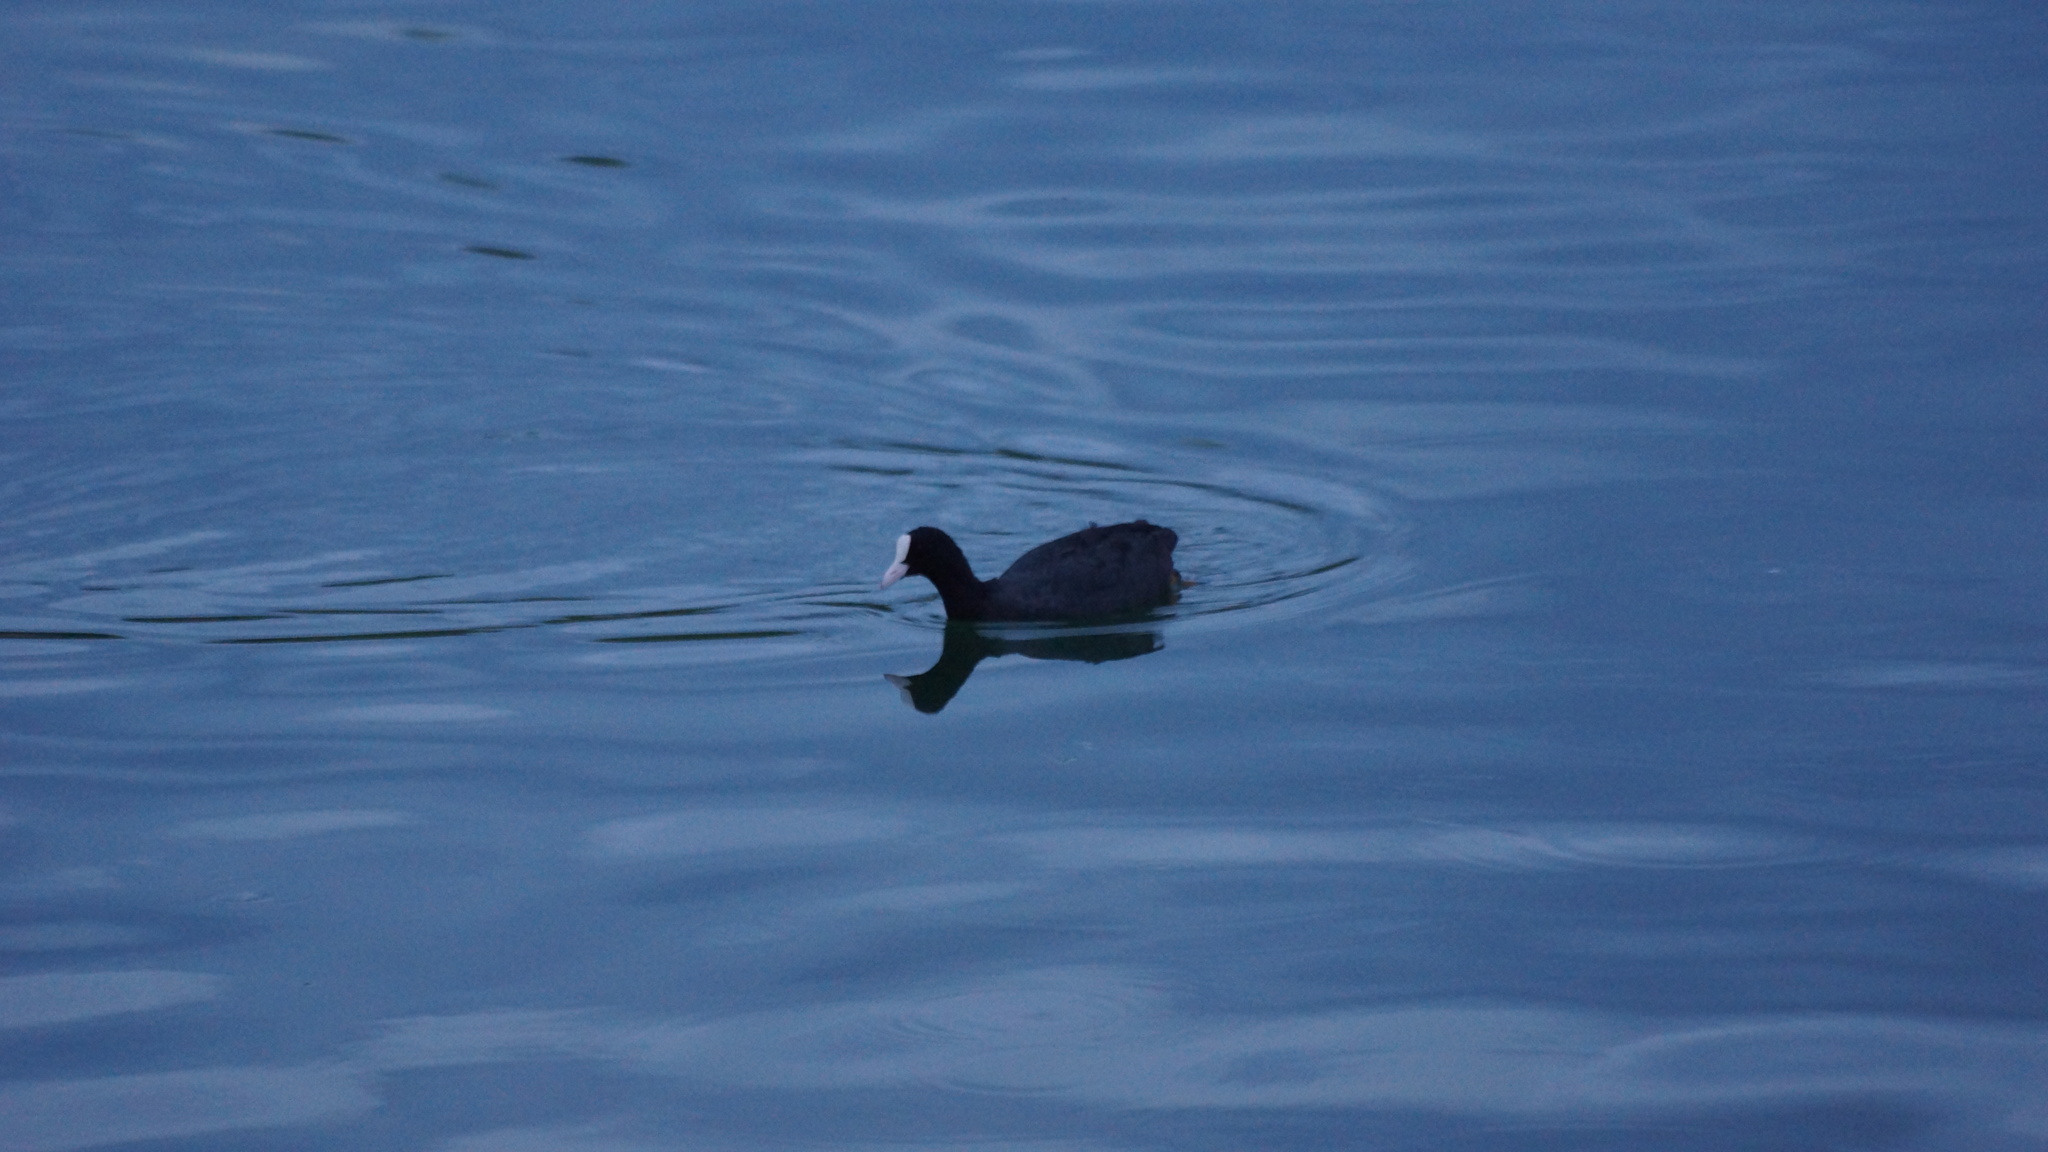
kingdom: Animalia
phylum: Chordata
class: Aves
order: Gruiformes
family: Rallidae
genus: Fulica
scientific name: Fulica atra
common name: Eurasian coot
